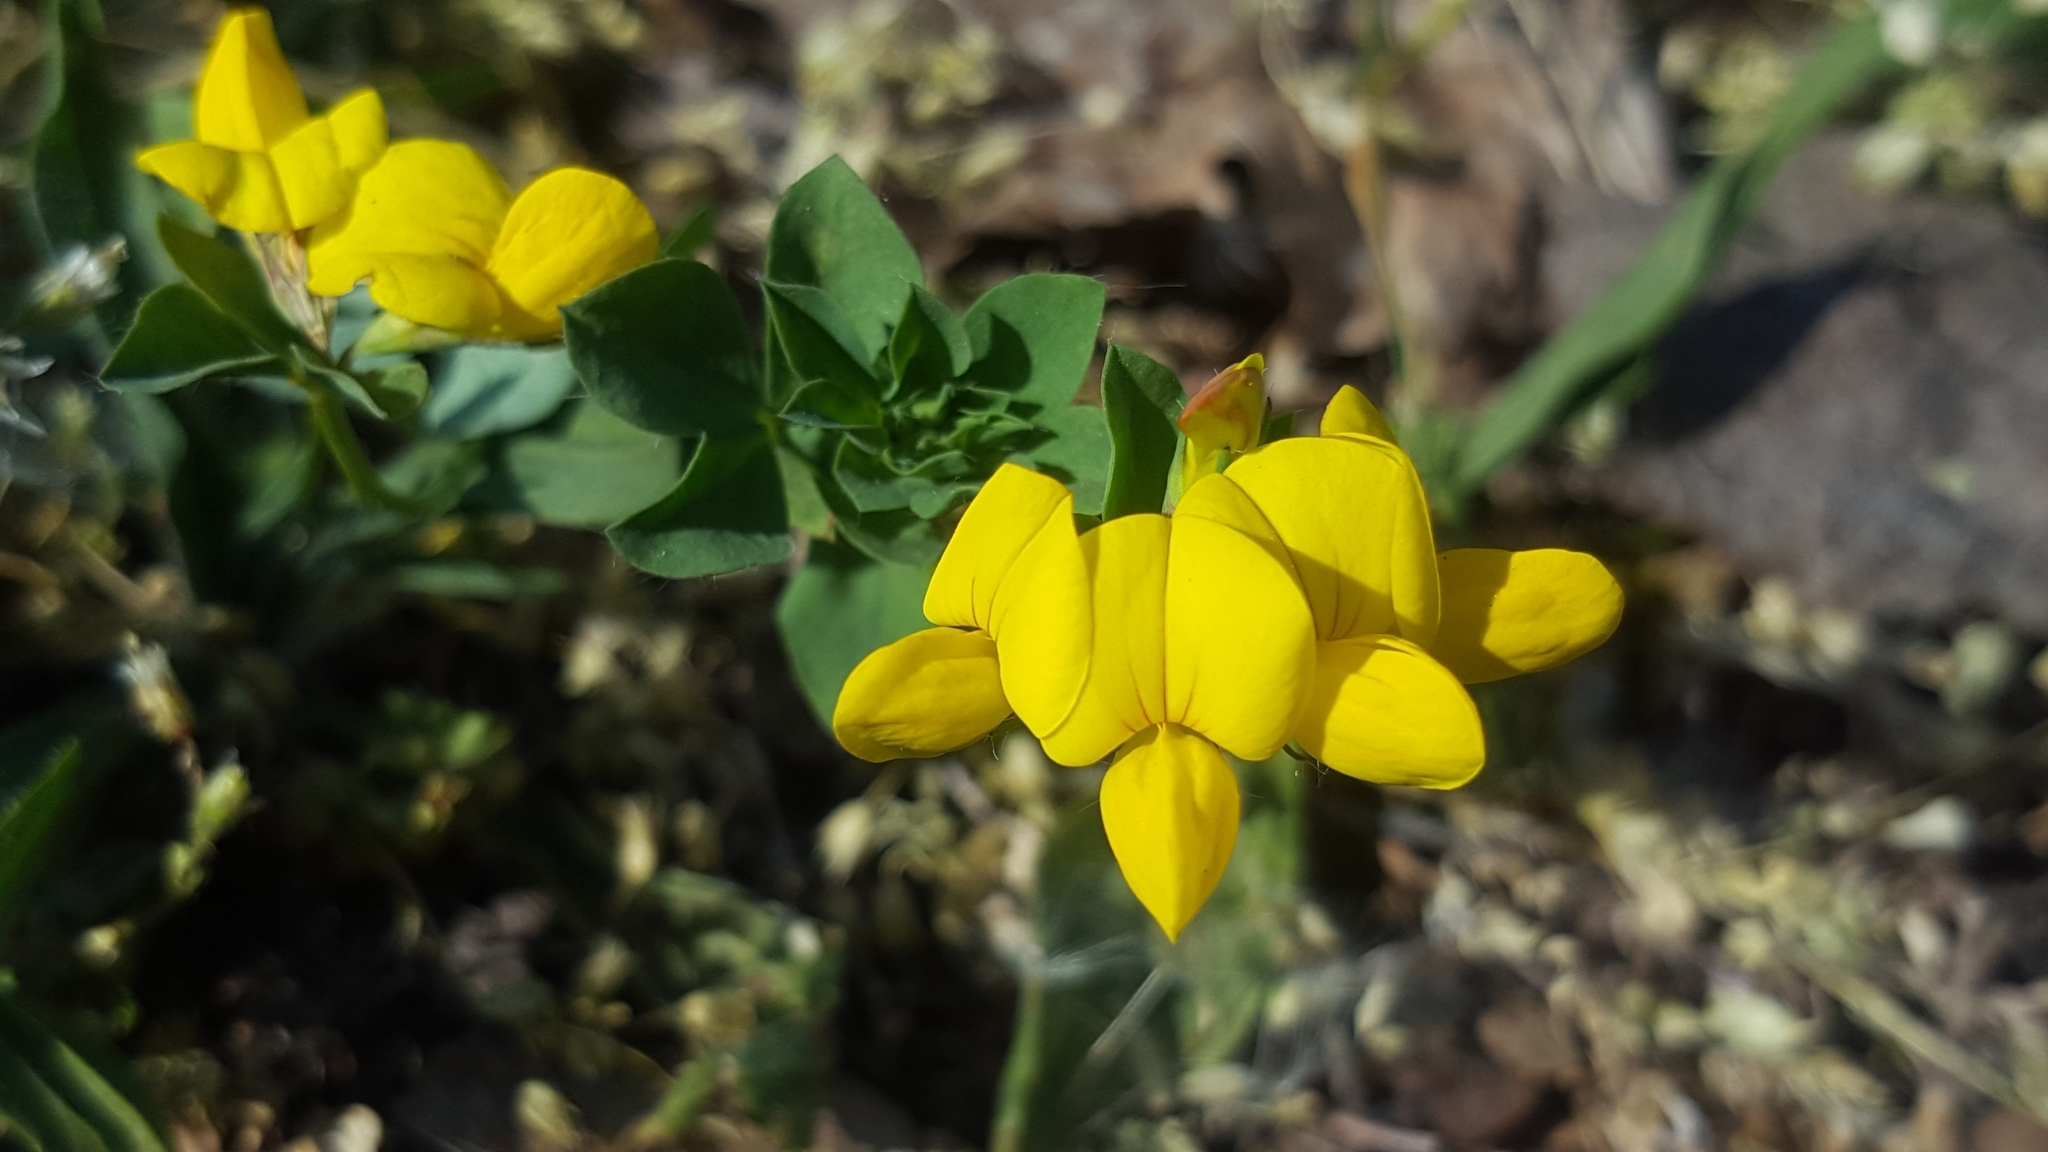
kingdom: Plantae
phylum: Tracheophyta
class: Magnoliopsida
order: Fabales
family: Fabaceae
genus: Lotus
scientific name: Lotus corniculatus
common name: Common bird's-foot-trefoil
